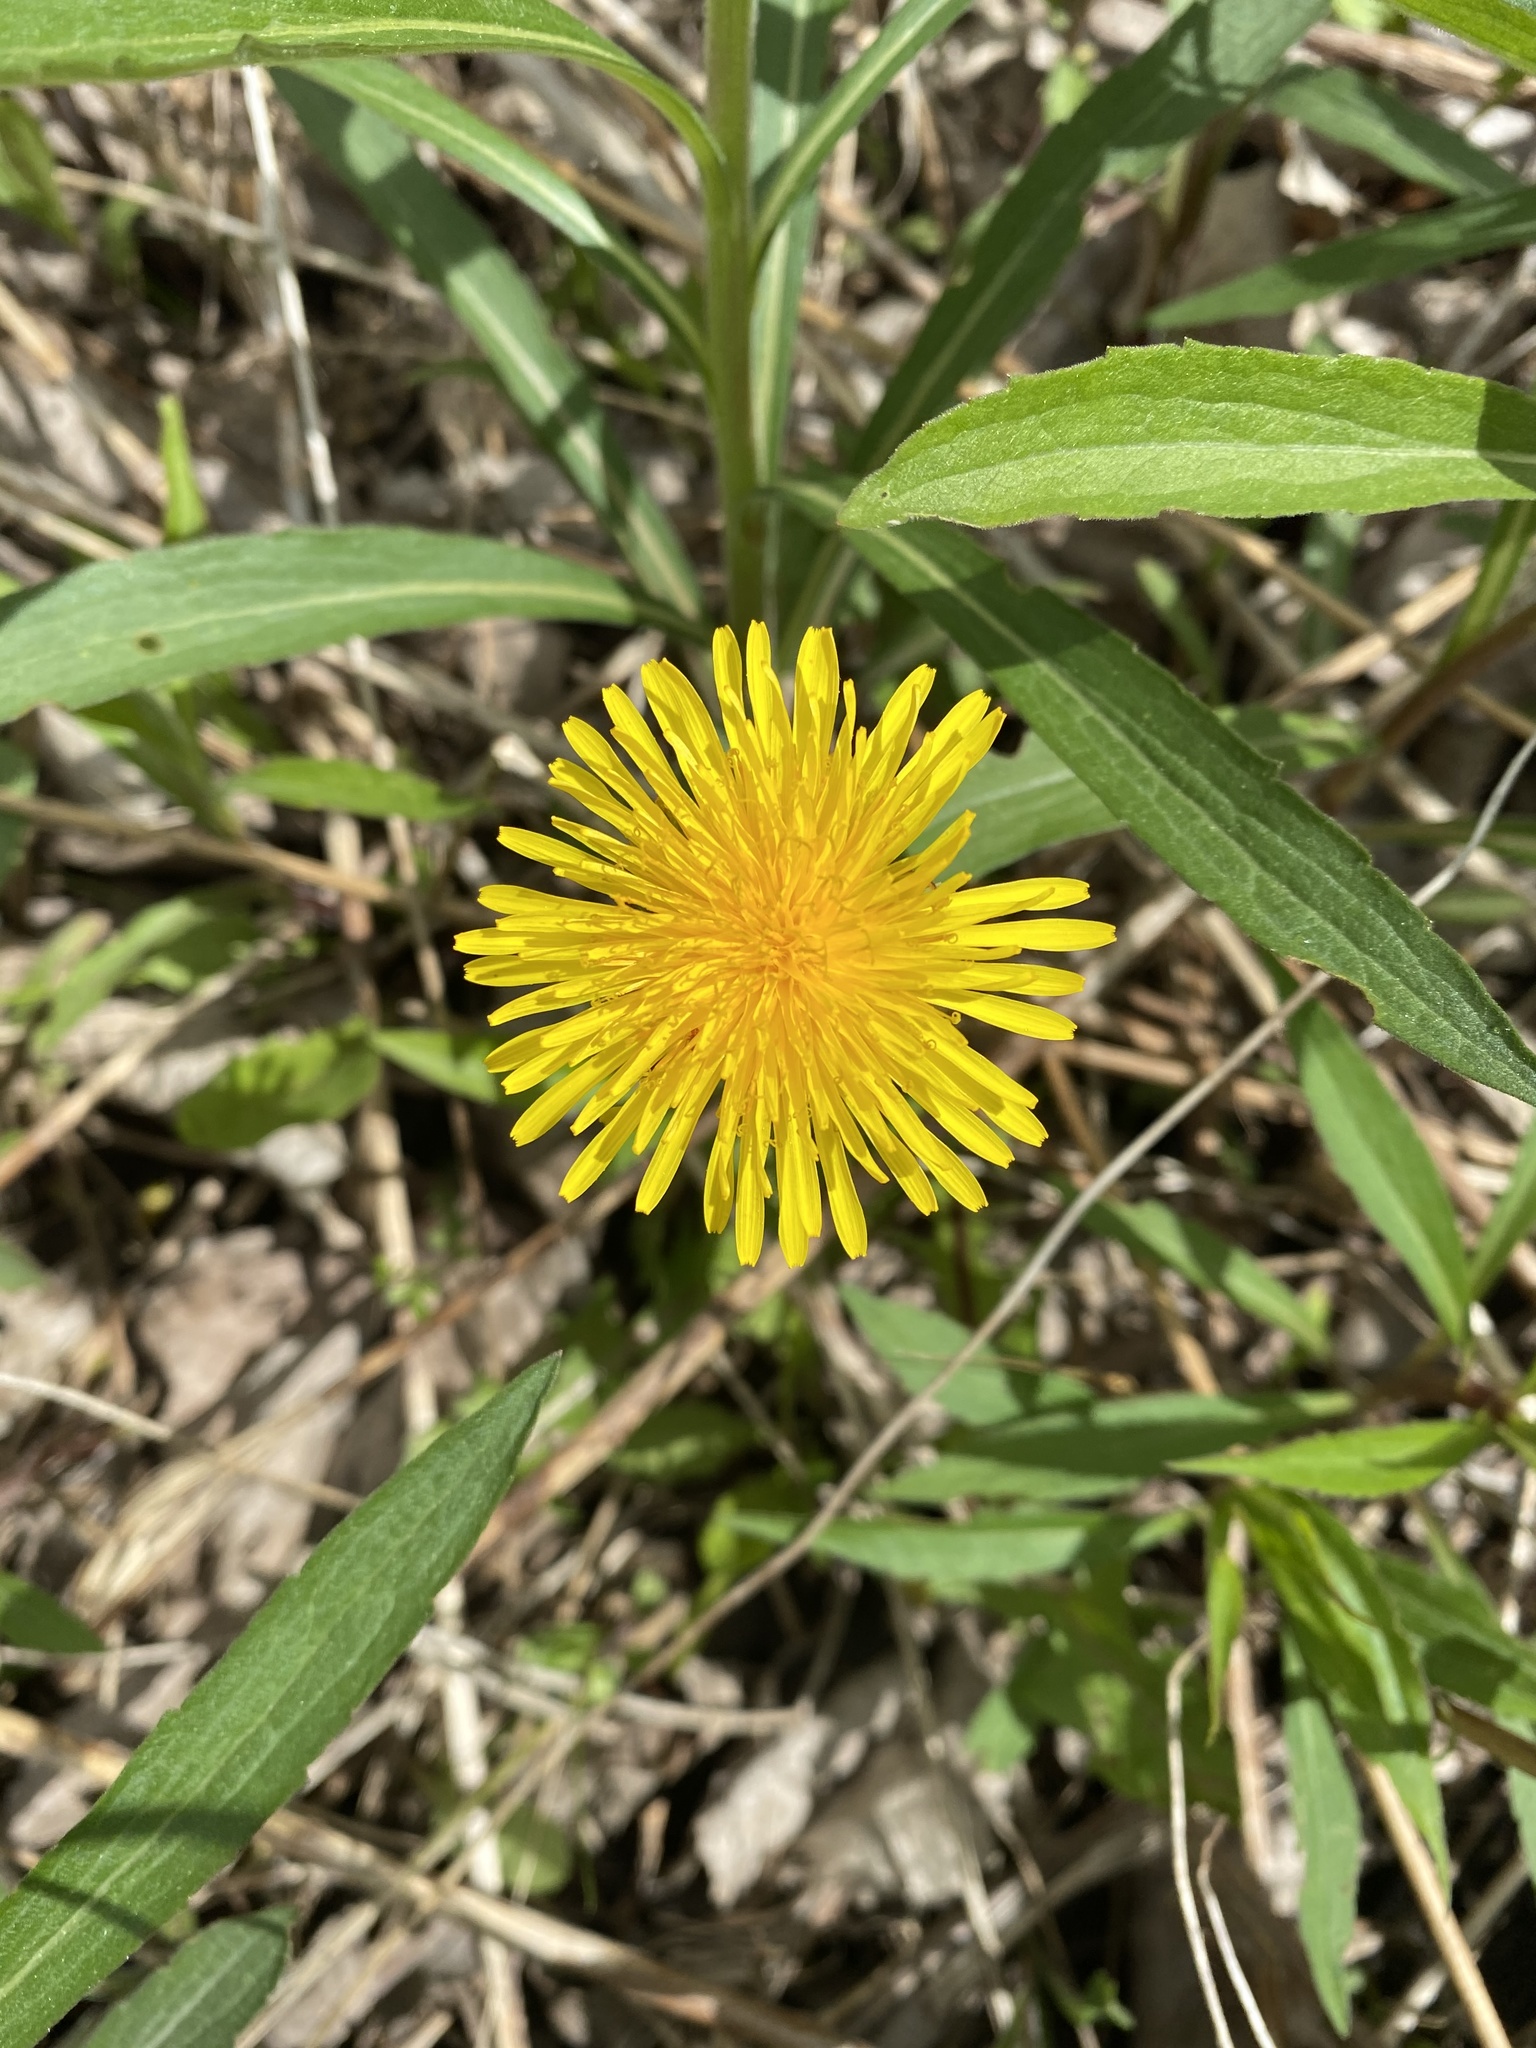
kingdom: Plantae
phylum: Tracheophyta
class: Magnoliopsida
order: Asterales
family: Asteraceae
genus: Taraxacum
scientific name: Taraxacum officinale
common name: Common dandelion
